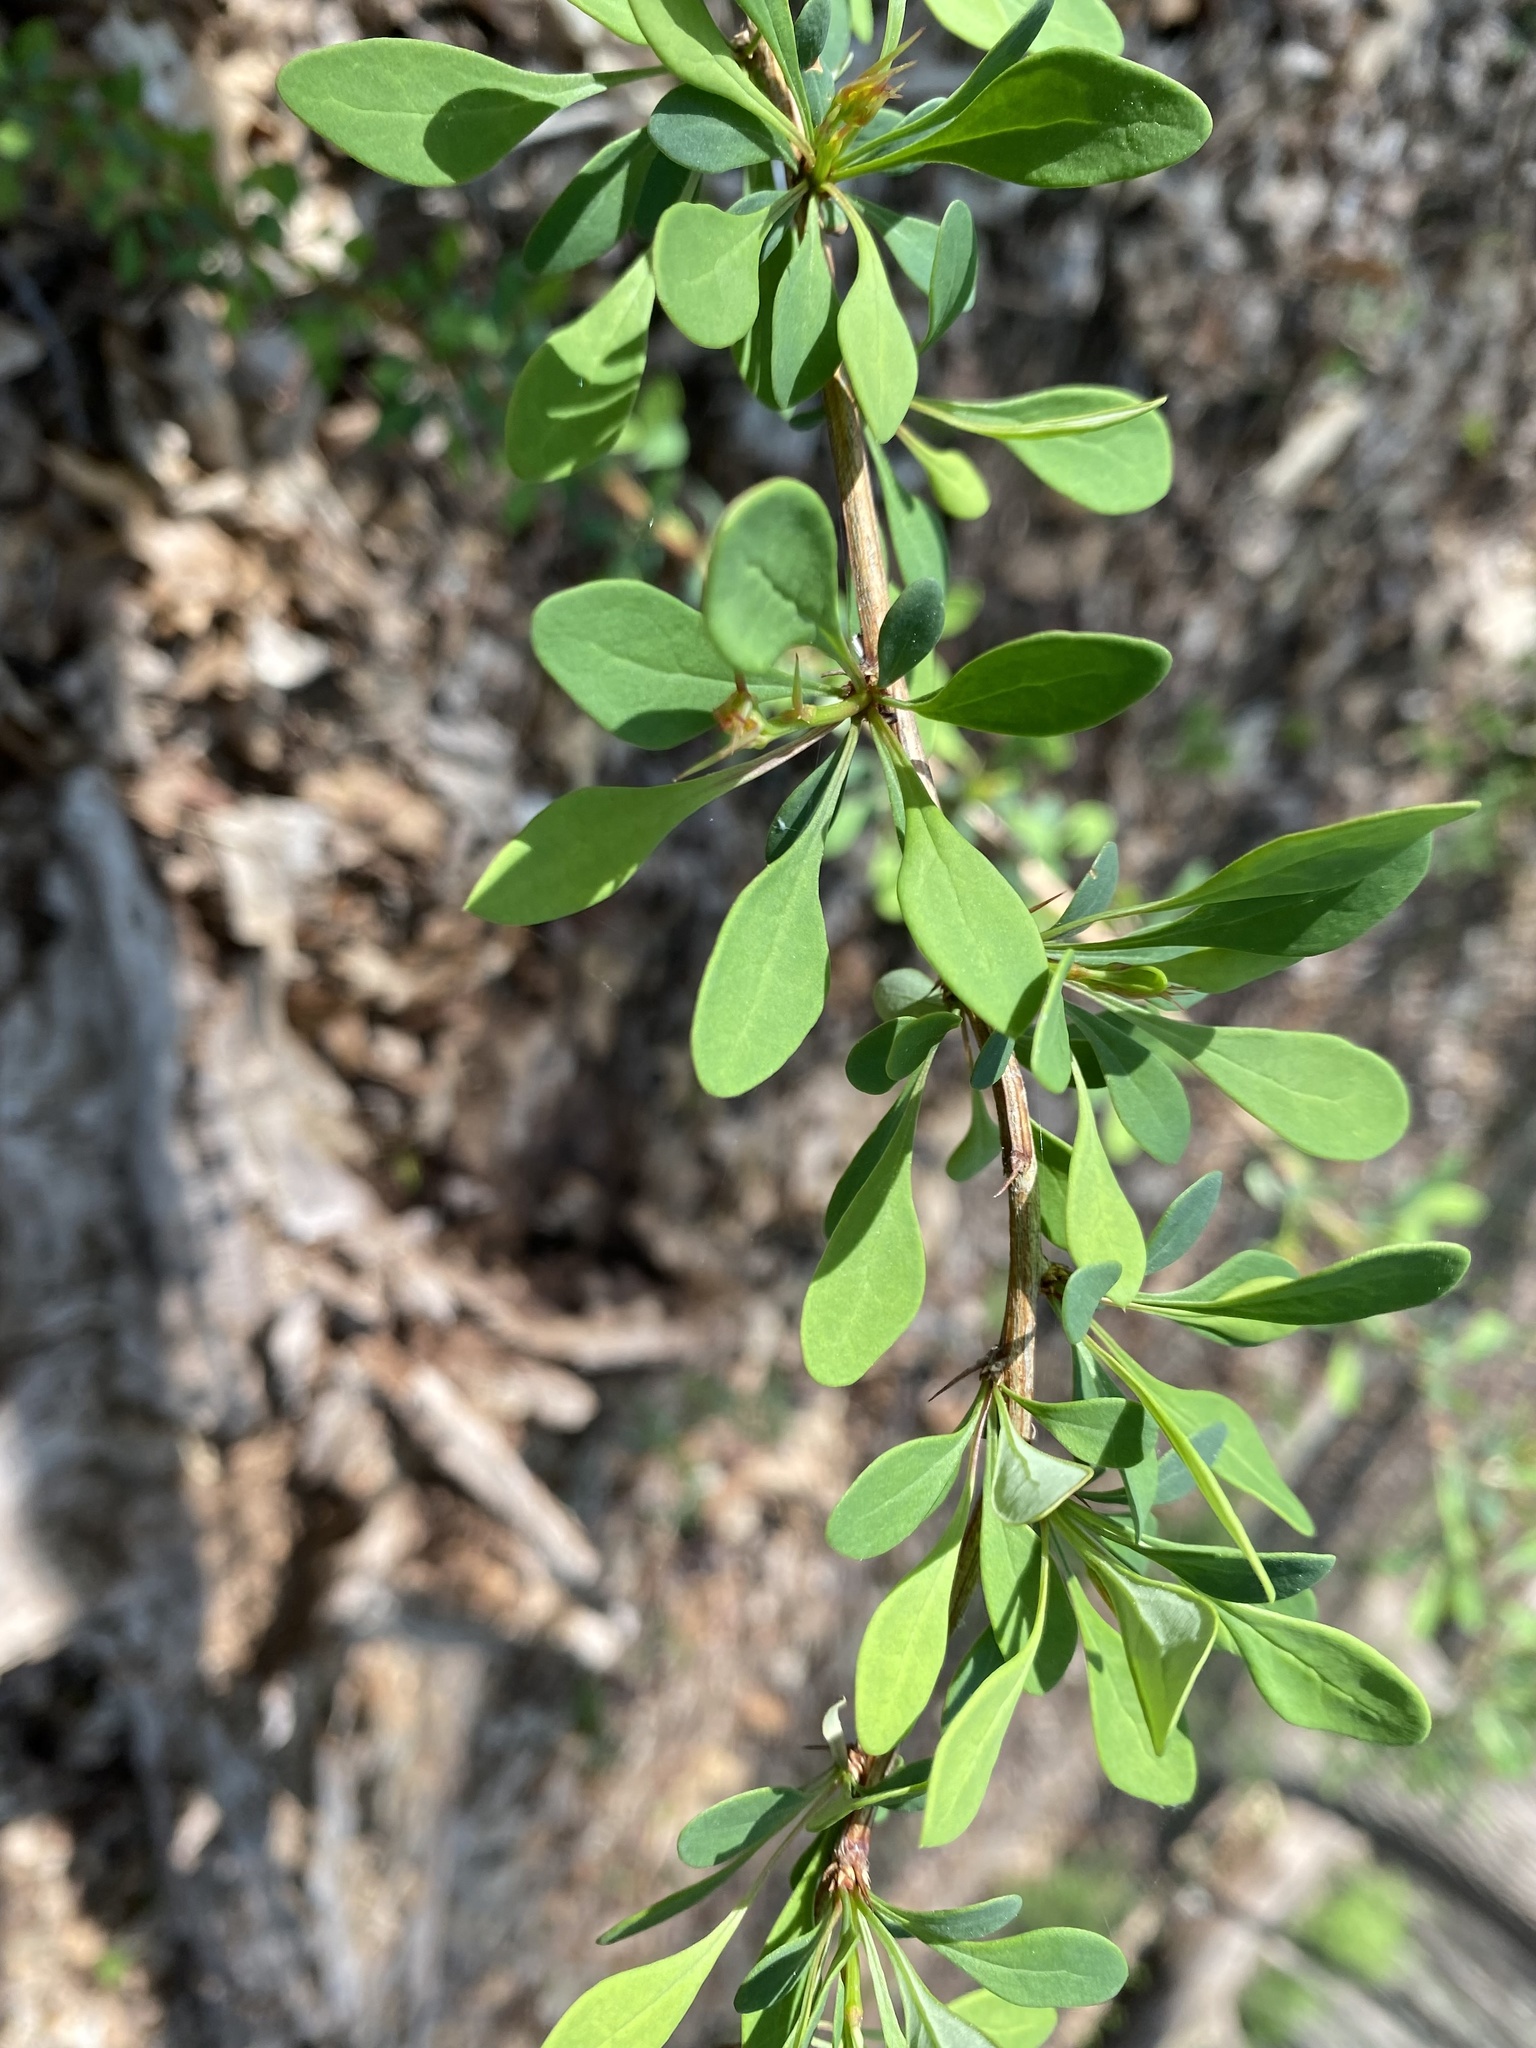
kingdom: Plantae
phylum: Tracheophyta
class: Magnoliopsida
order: Ranunculales
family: Berberidaceae
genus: Berberis
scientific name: Berberis thunbergii
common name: Japanese barberry
